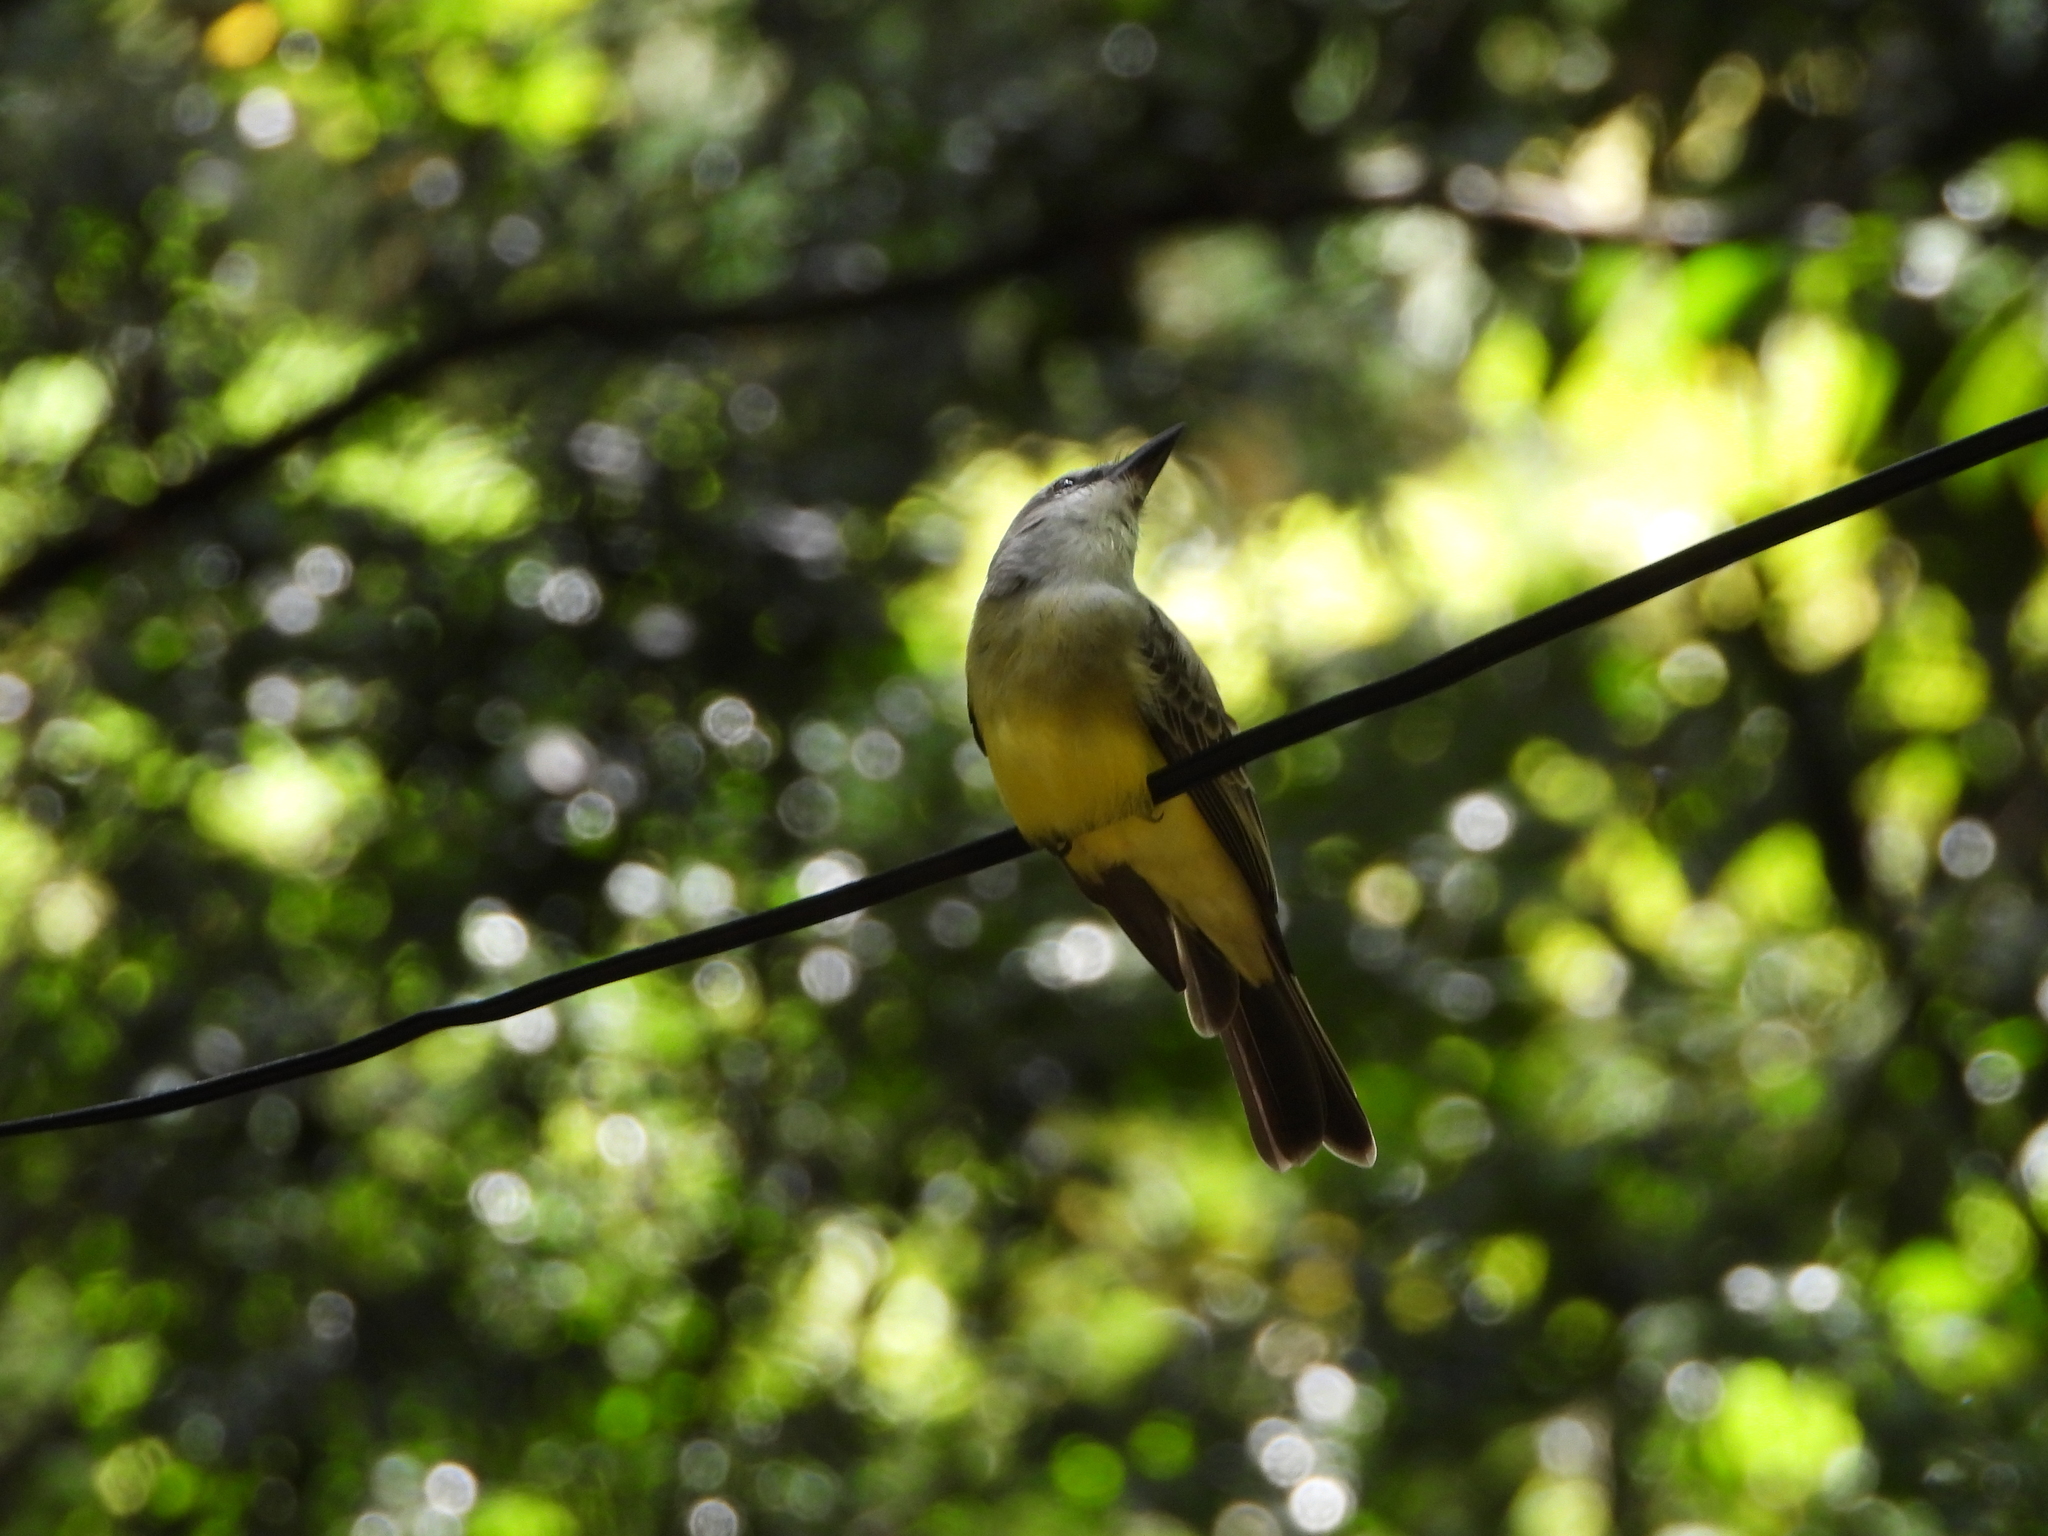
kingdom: Animalia
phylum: Chordata
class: Aves
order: Passeriformes
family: Tyrannidae
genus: Tyrannus
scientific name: Tyrannus melancholicus
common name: Tropical kingbird
